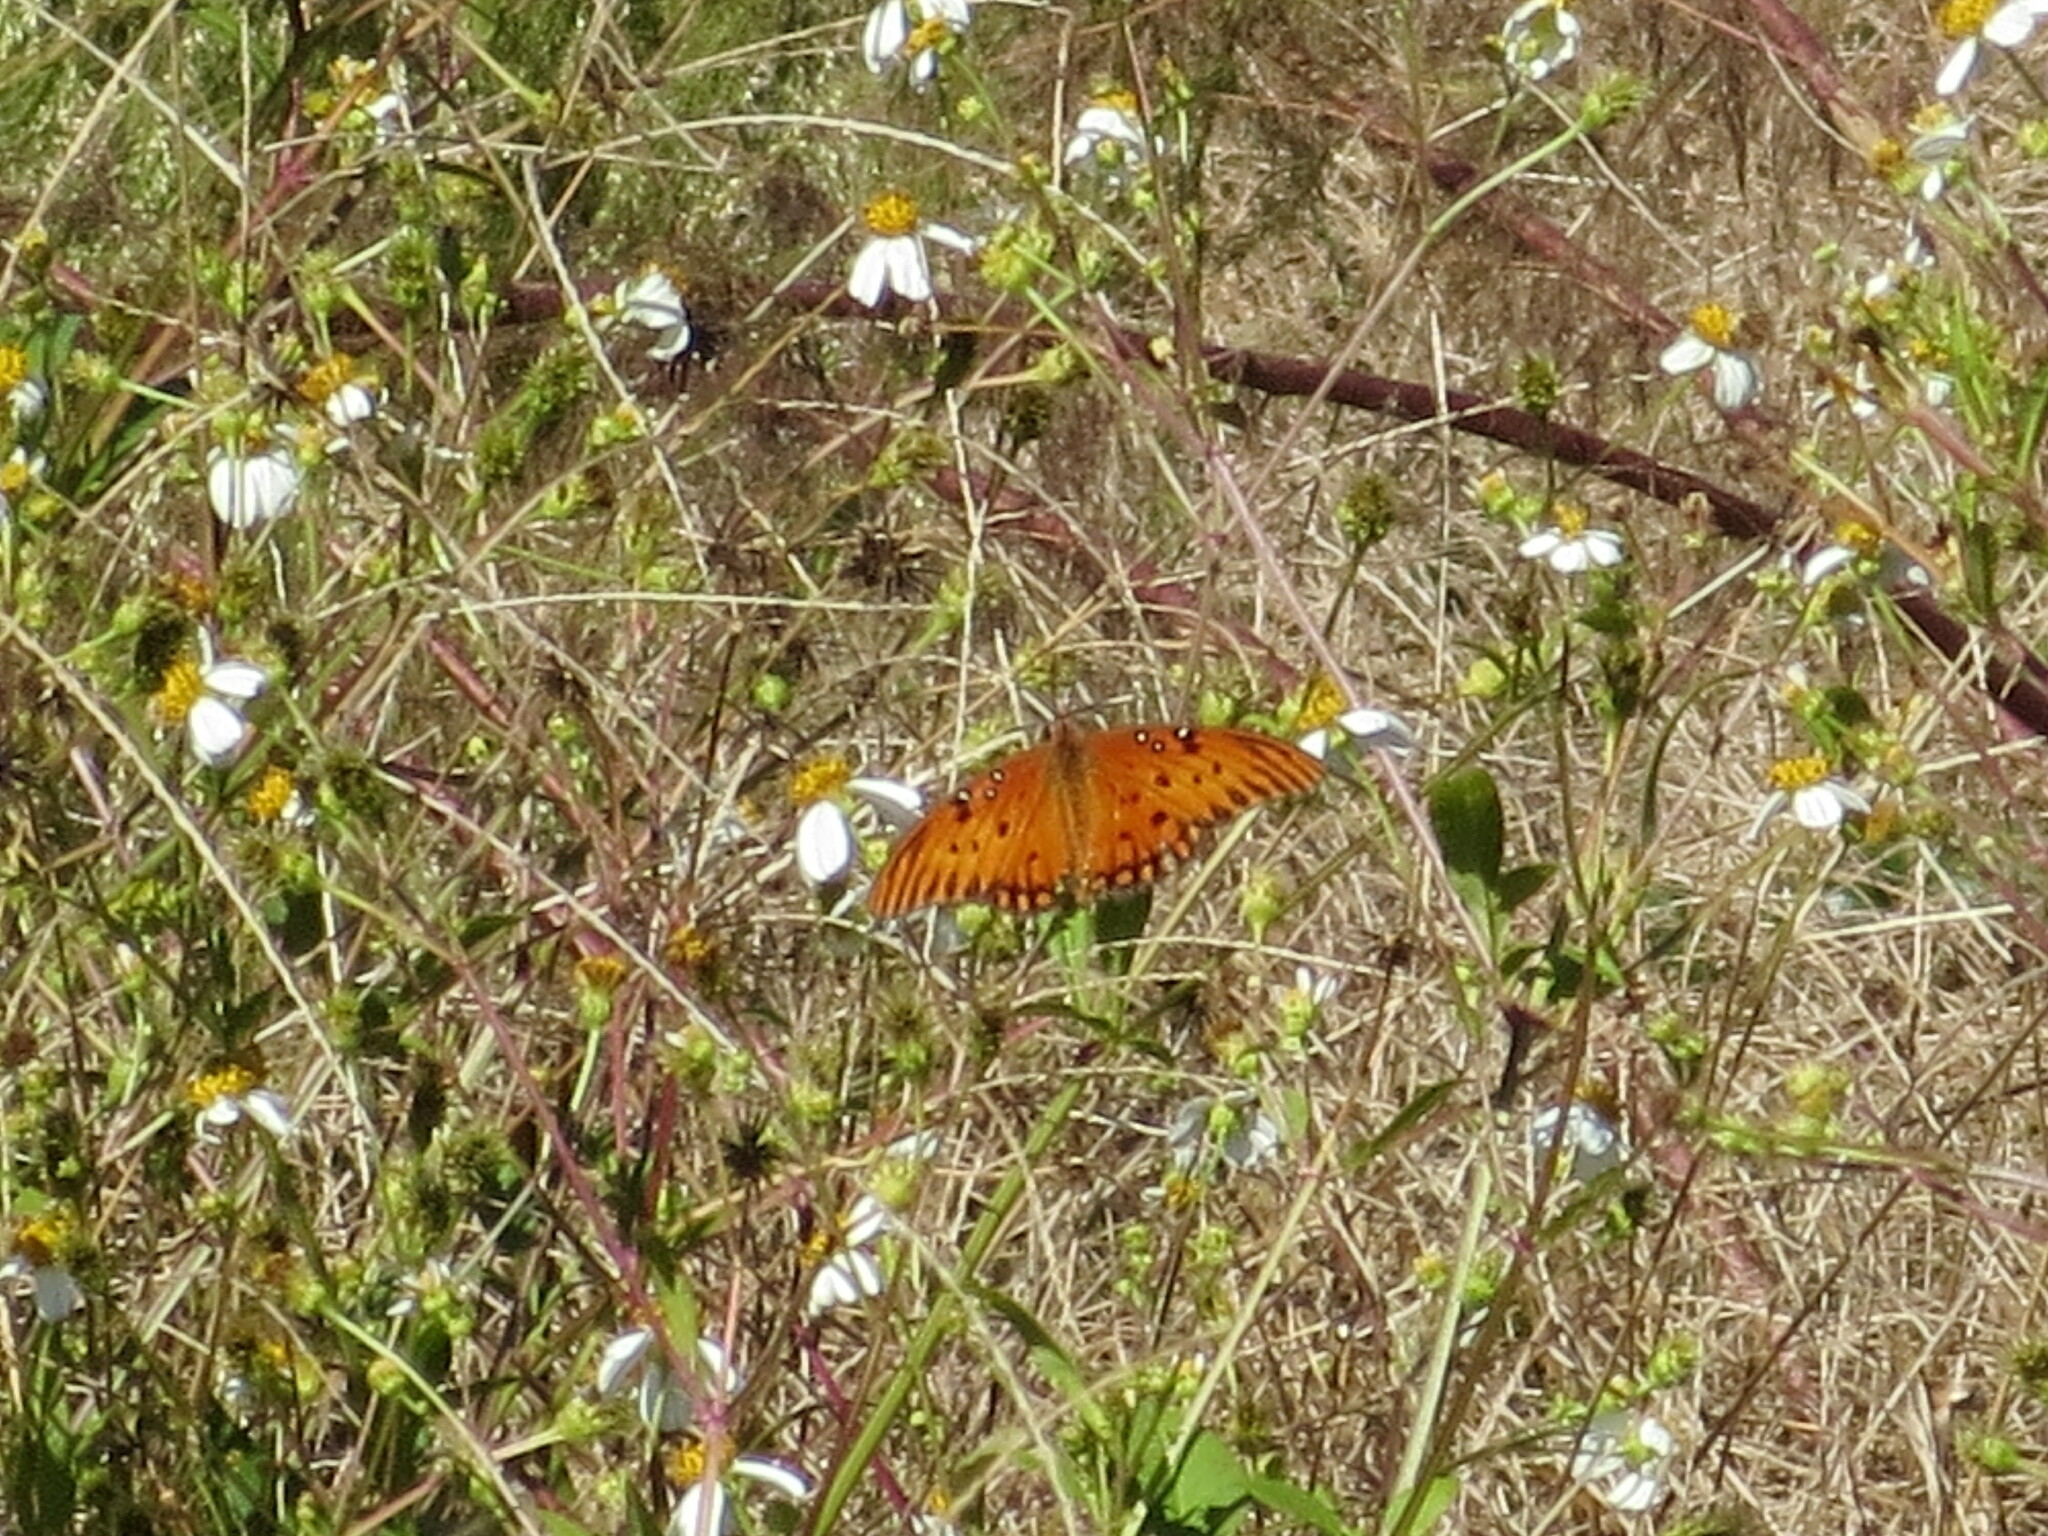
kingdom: Animalia
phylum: Arthropoda
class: Insecta
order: Lepidoptera
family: Nymphalidae
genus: Dione
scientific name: Dione vanillae
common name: Gulf fritillary
